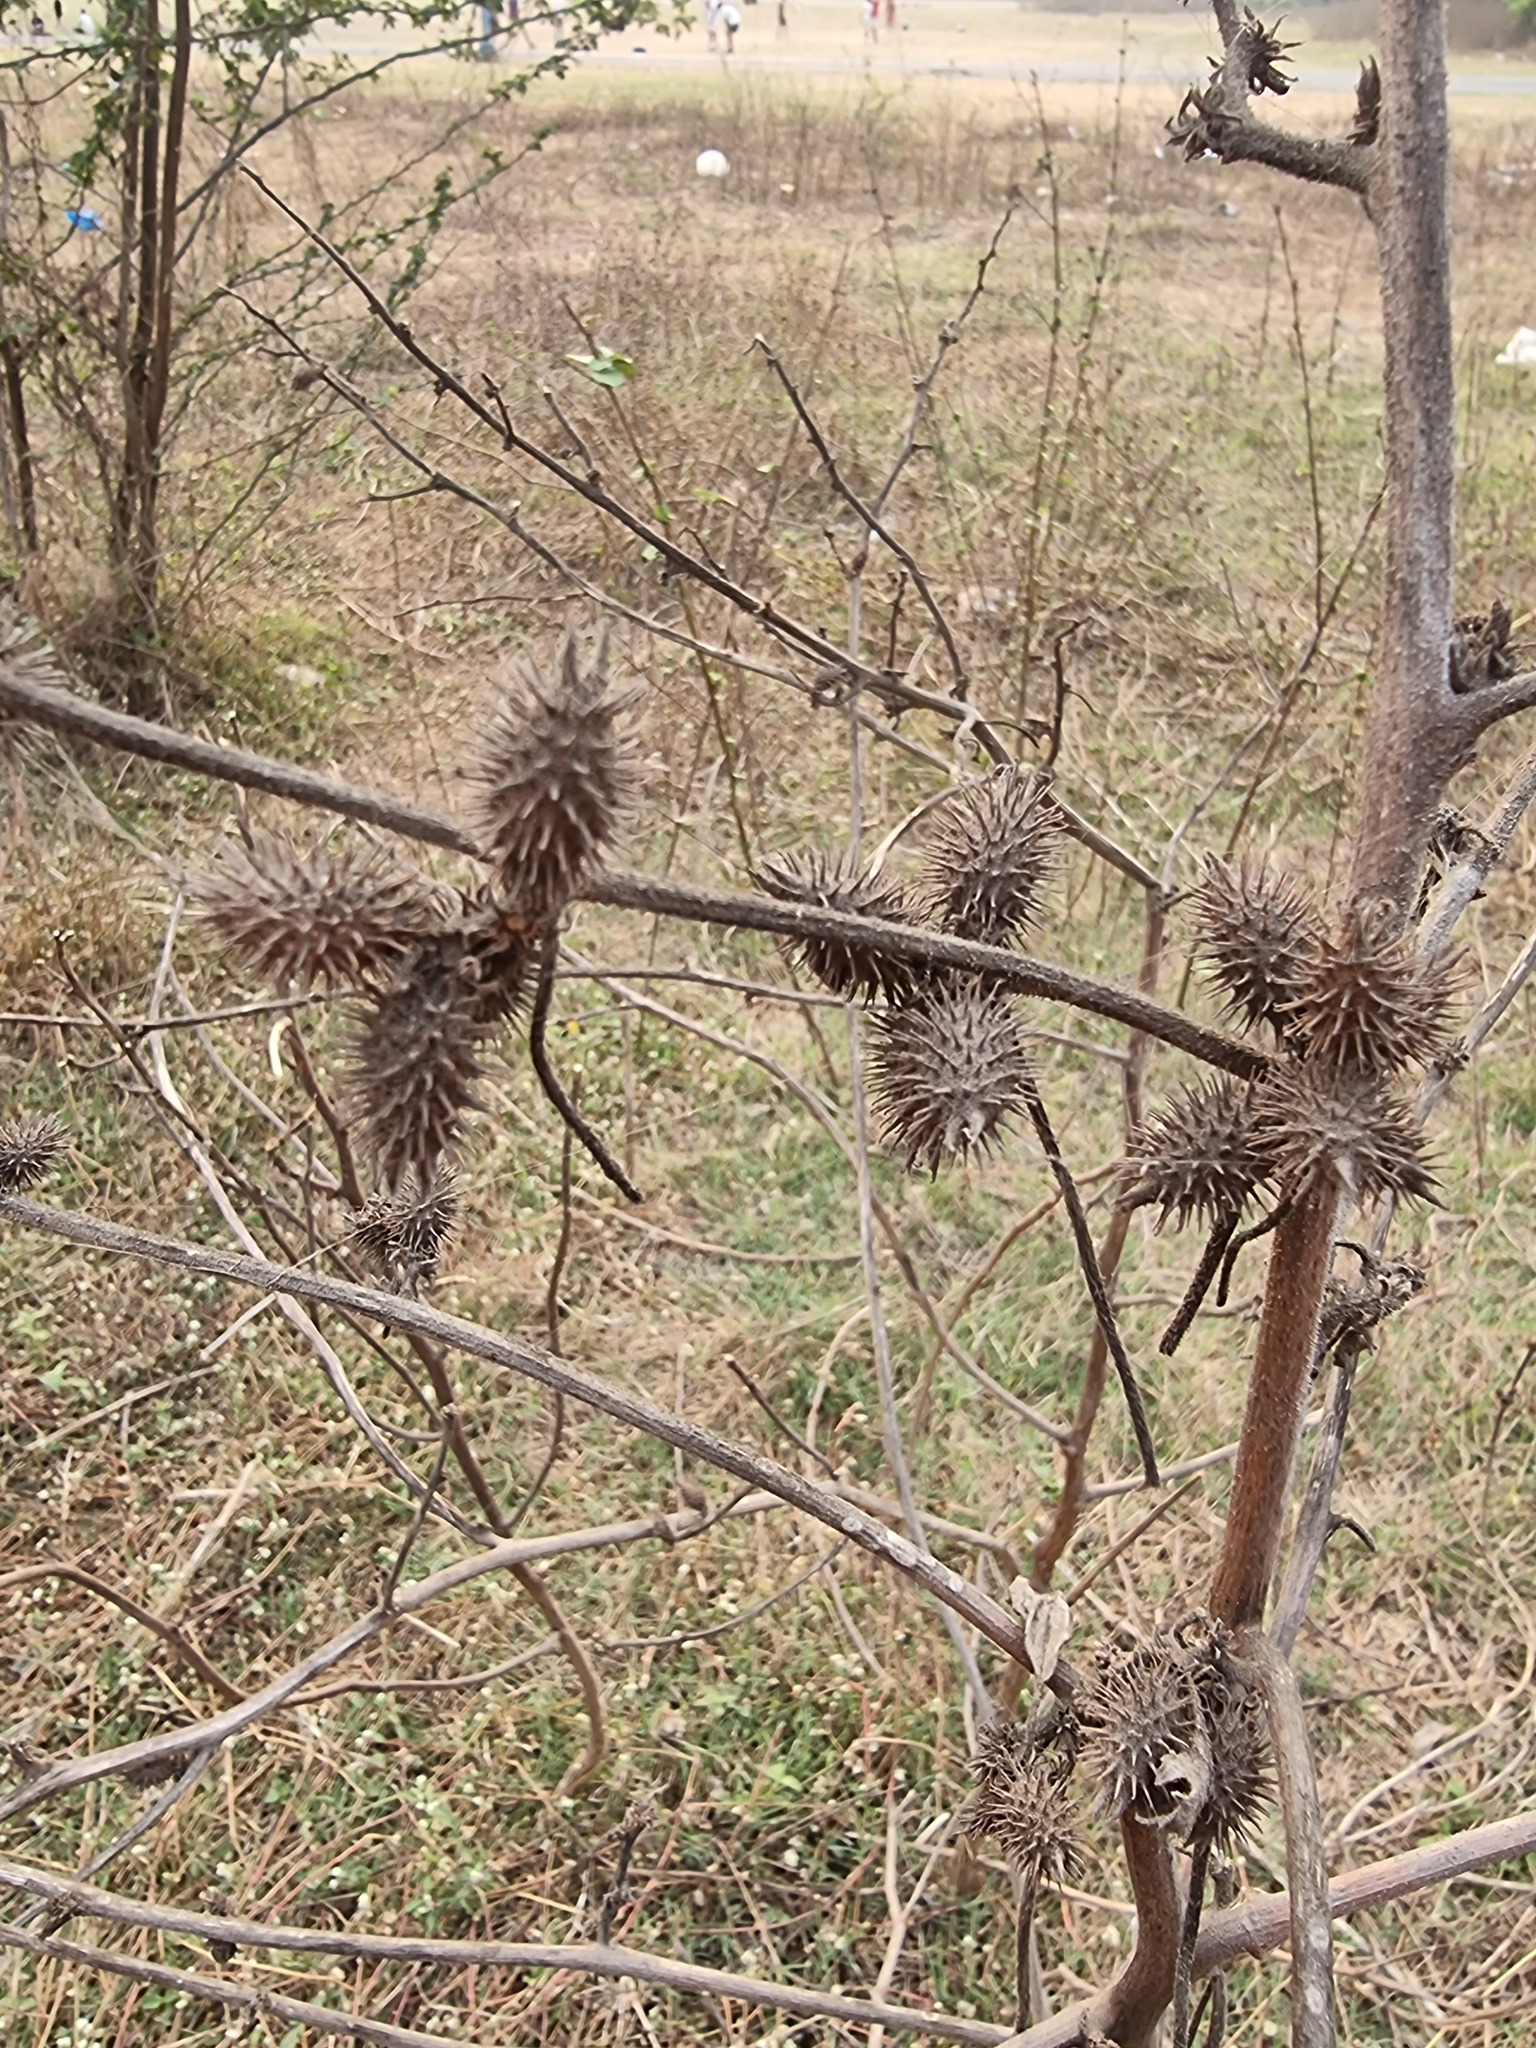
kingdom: Plantae
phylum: Tracheophyta
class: Magnoliopsida
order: Asterales
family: Asteraceae
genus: Xanthium
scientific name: Xanthium strumarium
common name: Rough cocklebur
